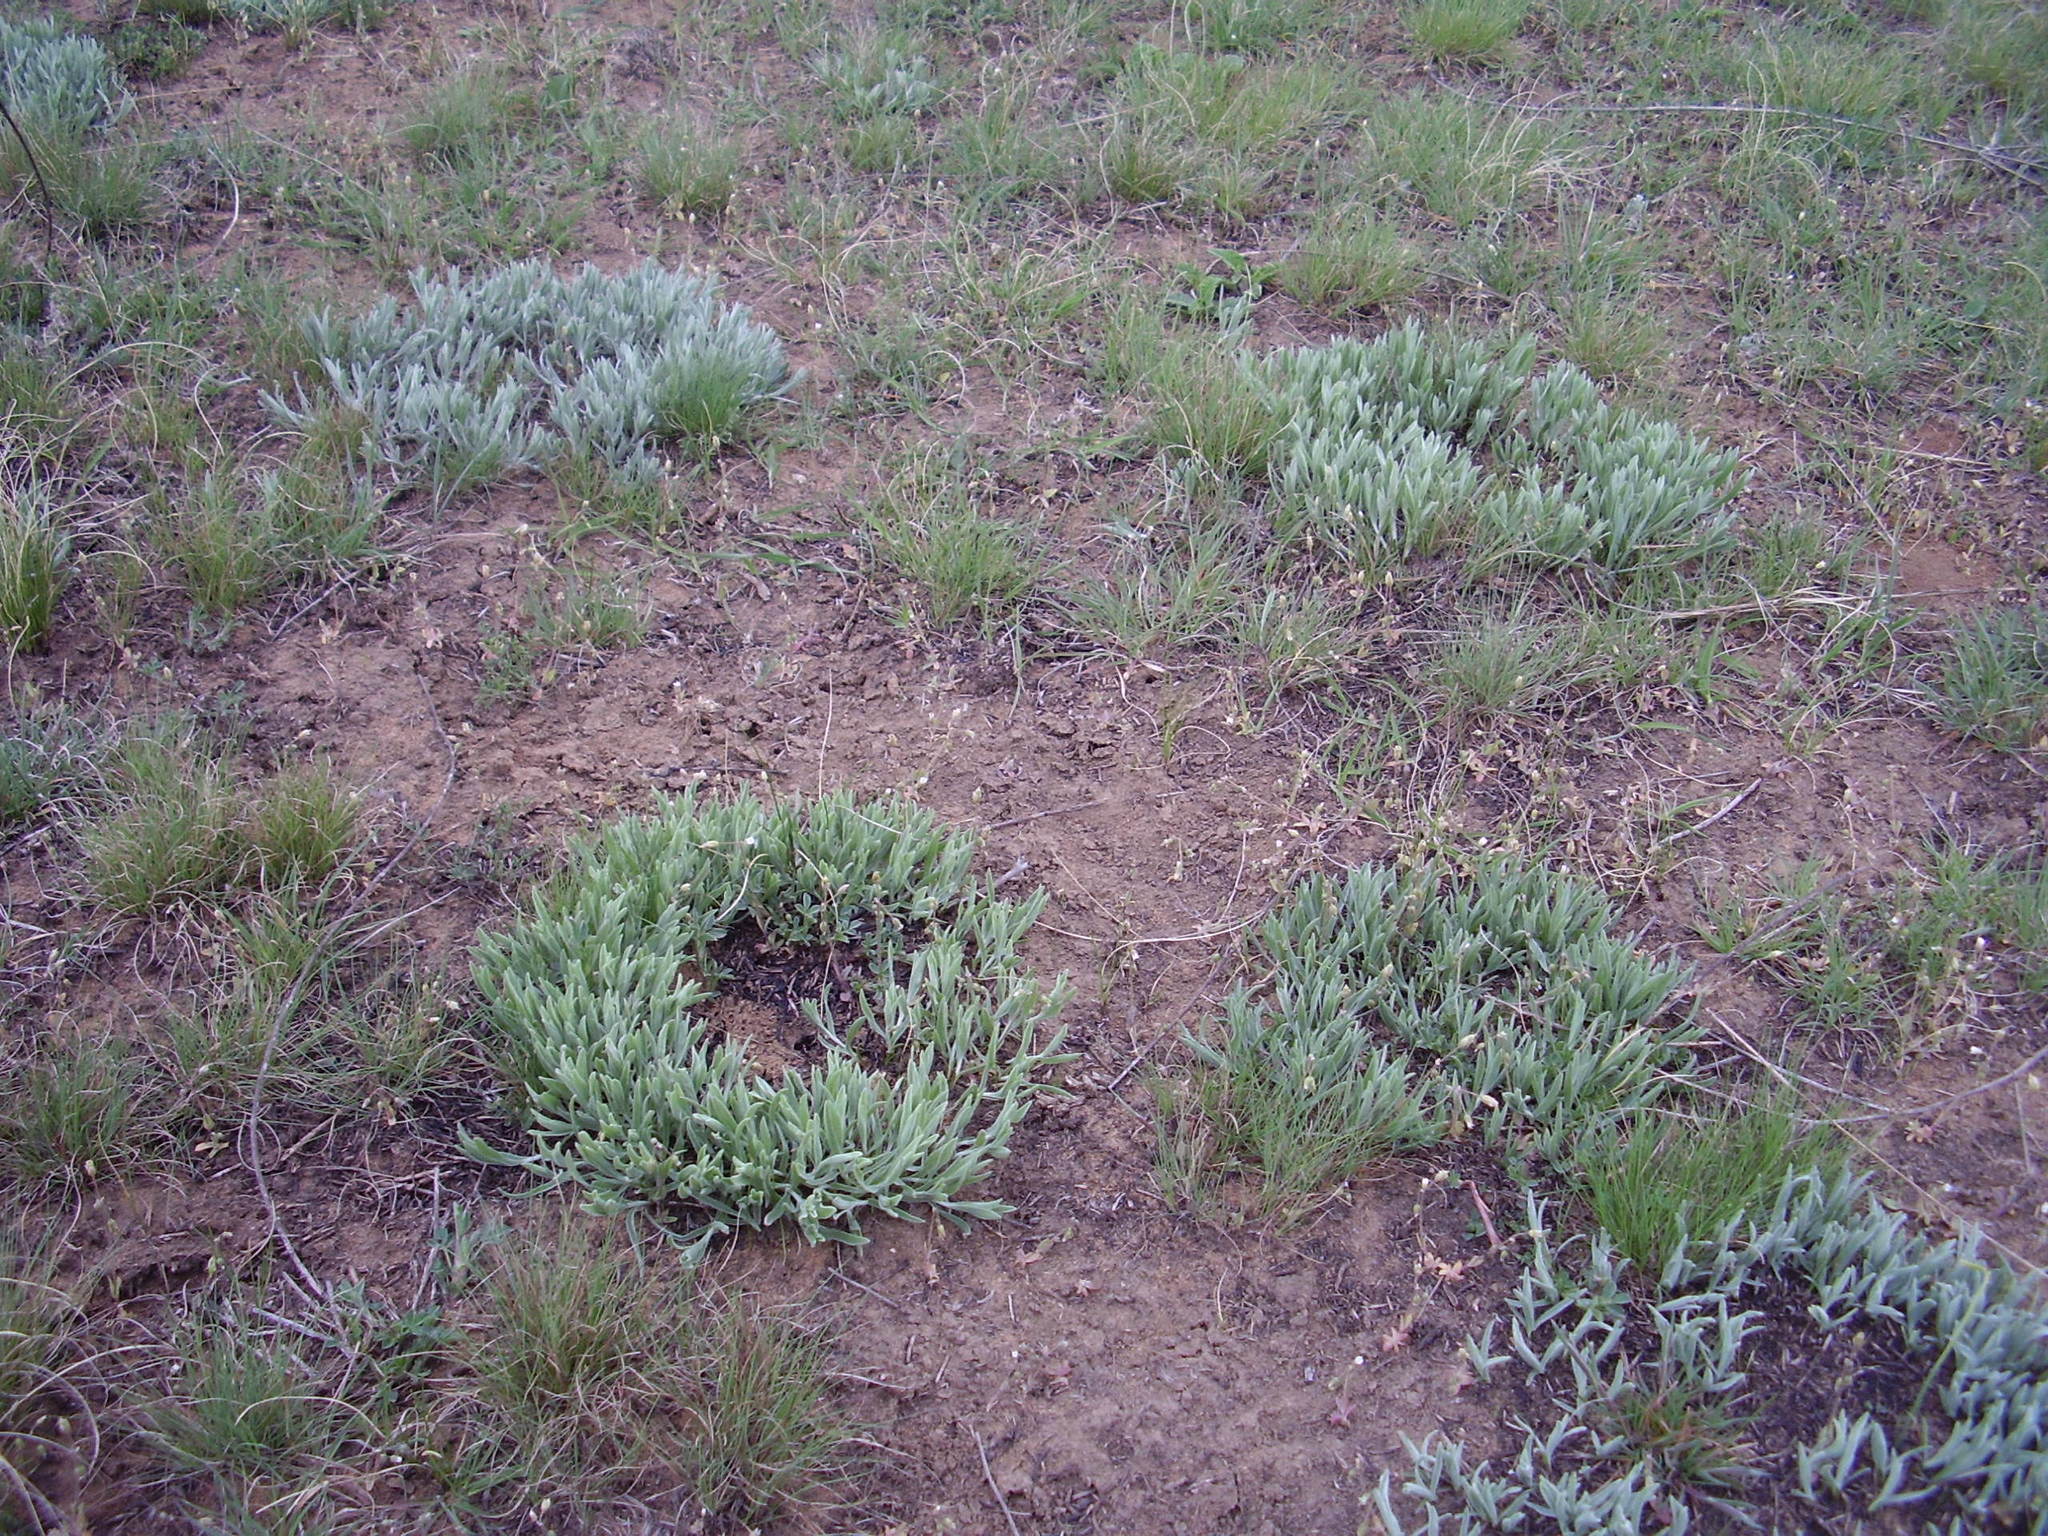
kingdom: Plantae
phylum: Tracheophyta
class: Liliopsida
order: Asparagales
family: Iridaceae
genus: Iris
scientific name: Iris pumila
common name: Dwarf iris
